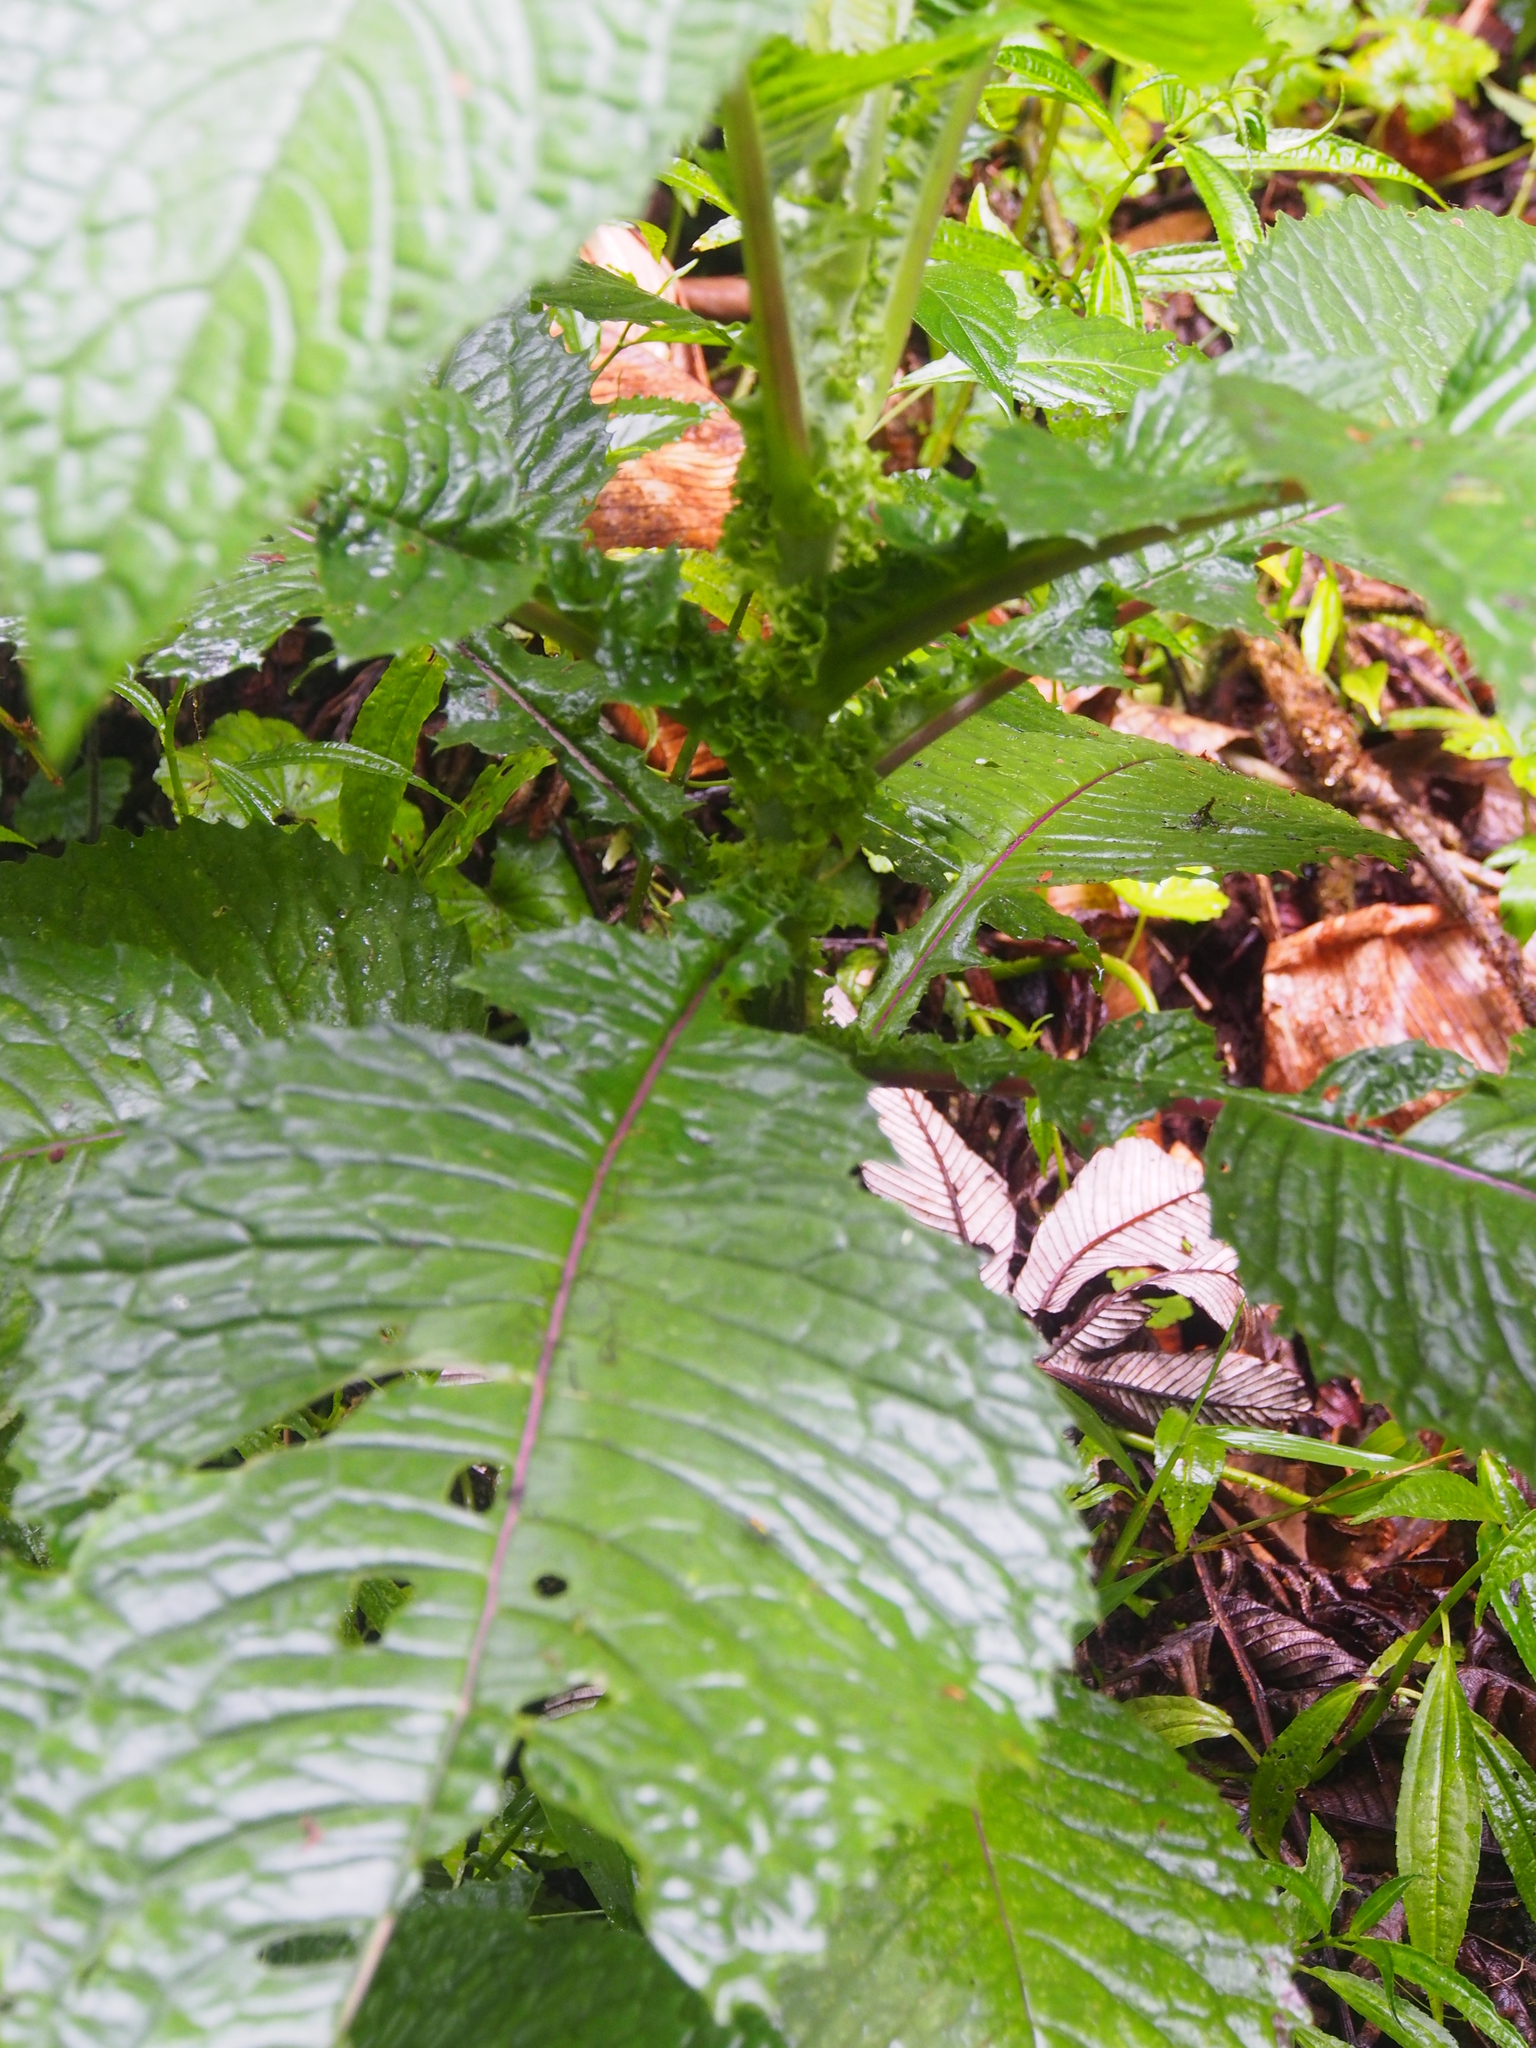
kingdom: Plantae
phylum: Tracheophyta
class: Magnoliopsida
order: Asterales
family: Asteraceae
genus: Jessea
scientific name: Jessea multivenia
